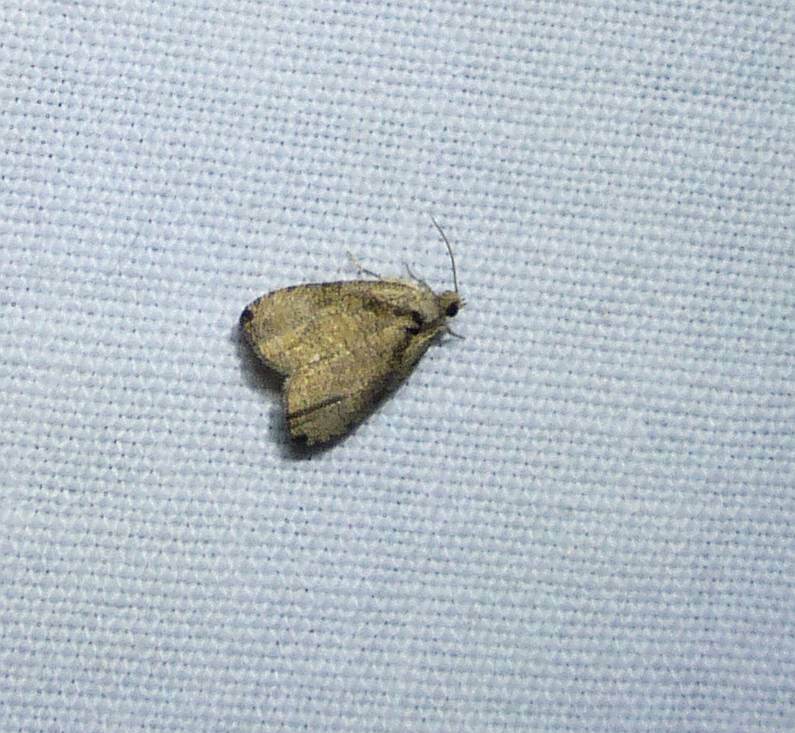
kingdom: Animalia
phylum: Arthropoda
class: Insecta
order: Lepidoptera
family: Tortricidae
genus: Olethreutes
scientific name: Olethreutes exoletum
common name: Wretched olethreutes moth
